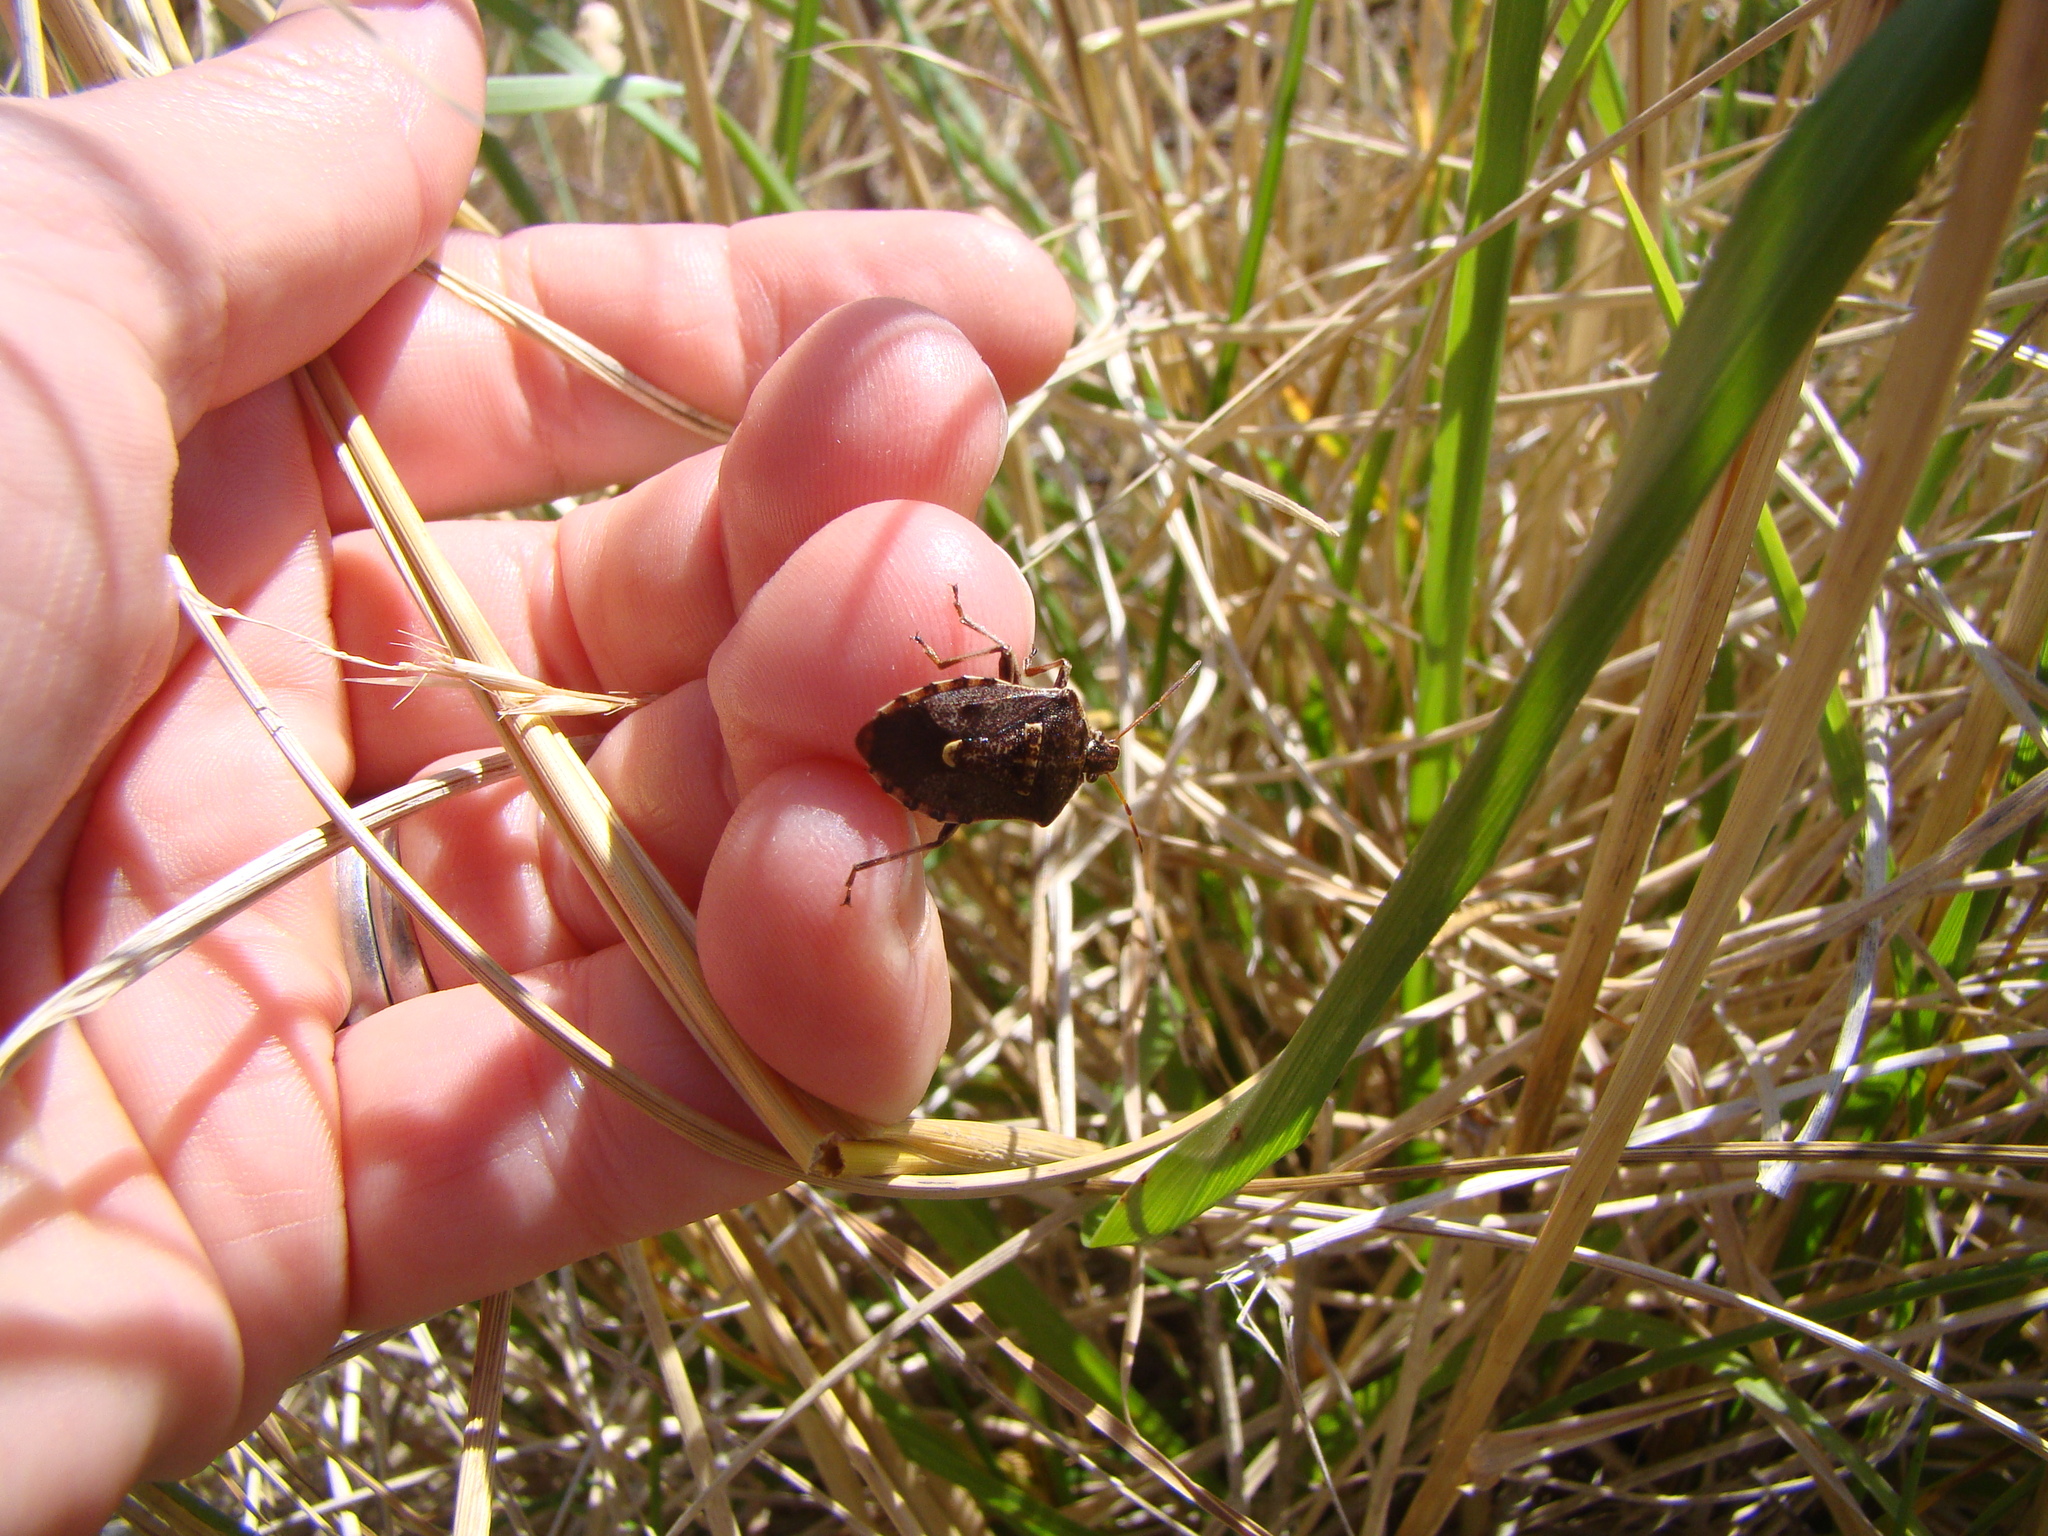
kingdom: Animalia
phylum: Arthropoda
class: Insecta
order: Hemiptera
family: Pentatomidae
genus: Cermatulus
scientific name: Cermatulus nasalis
